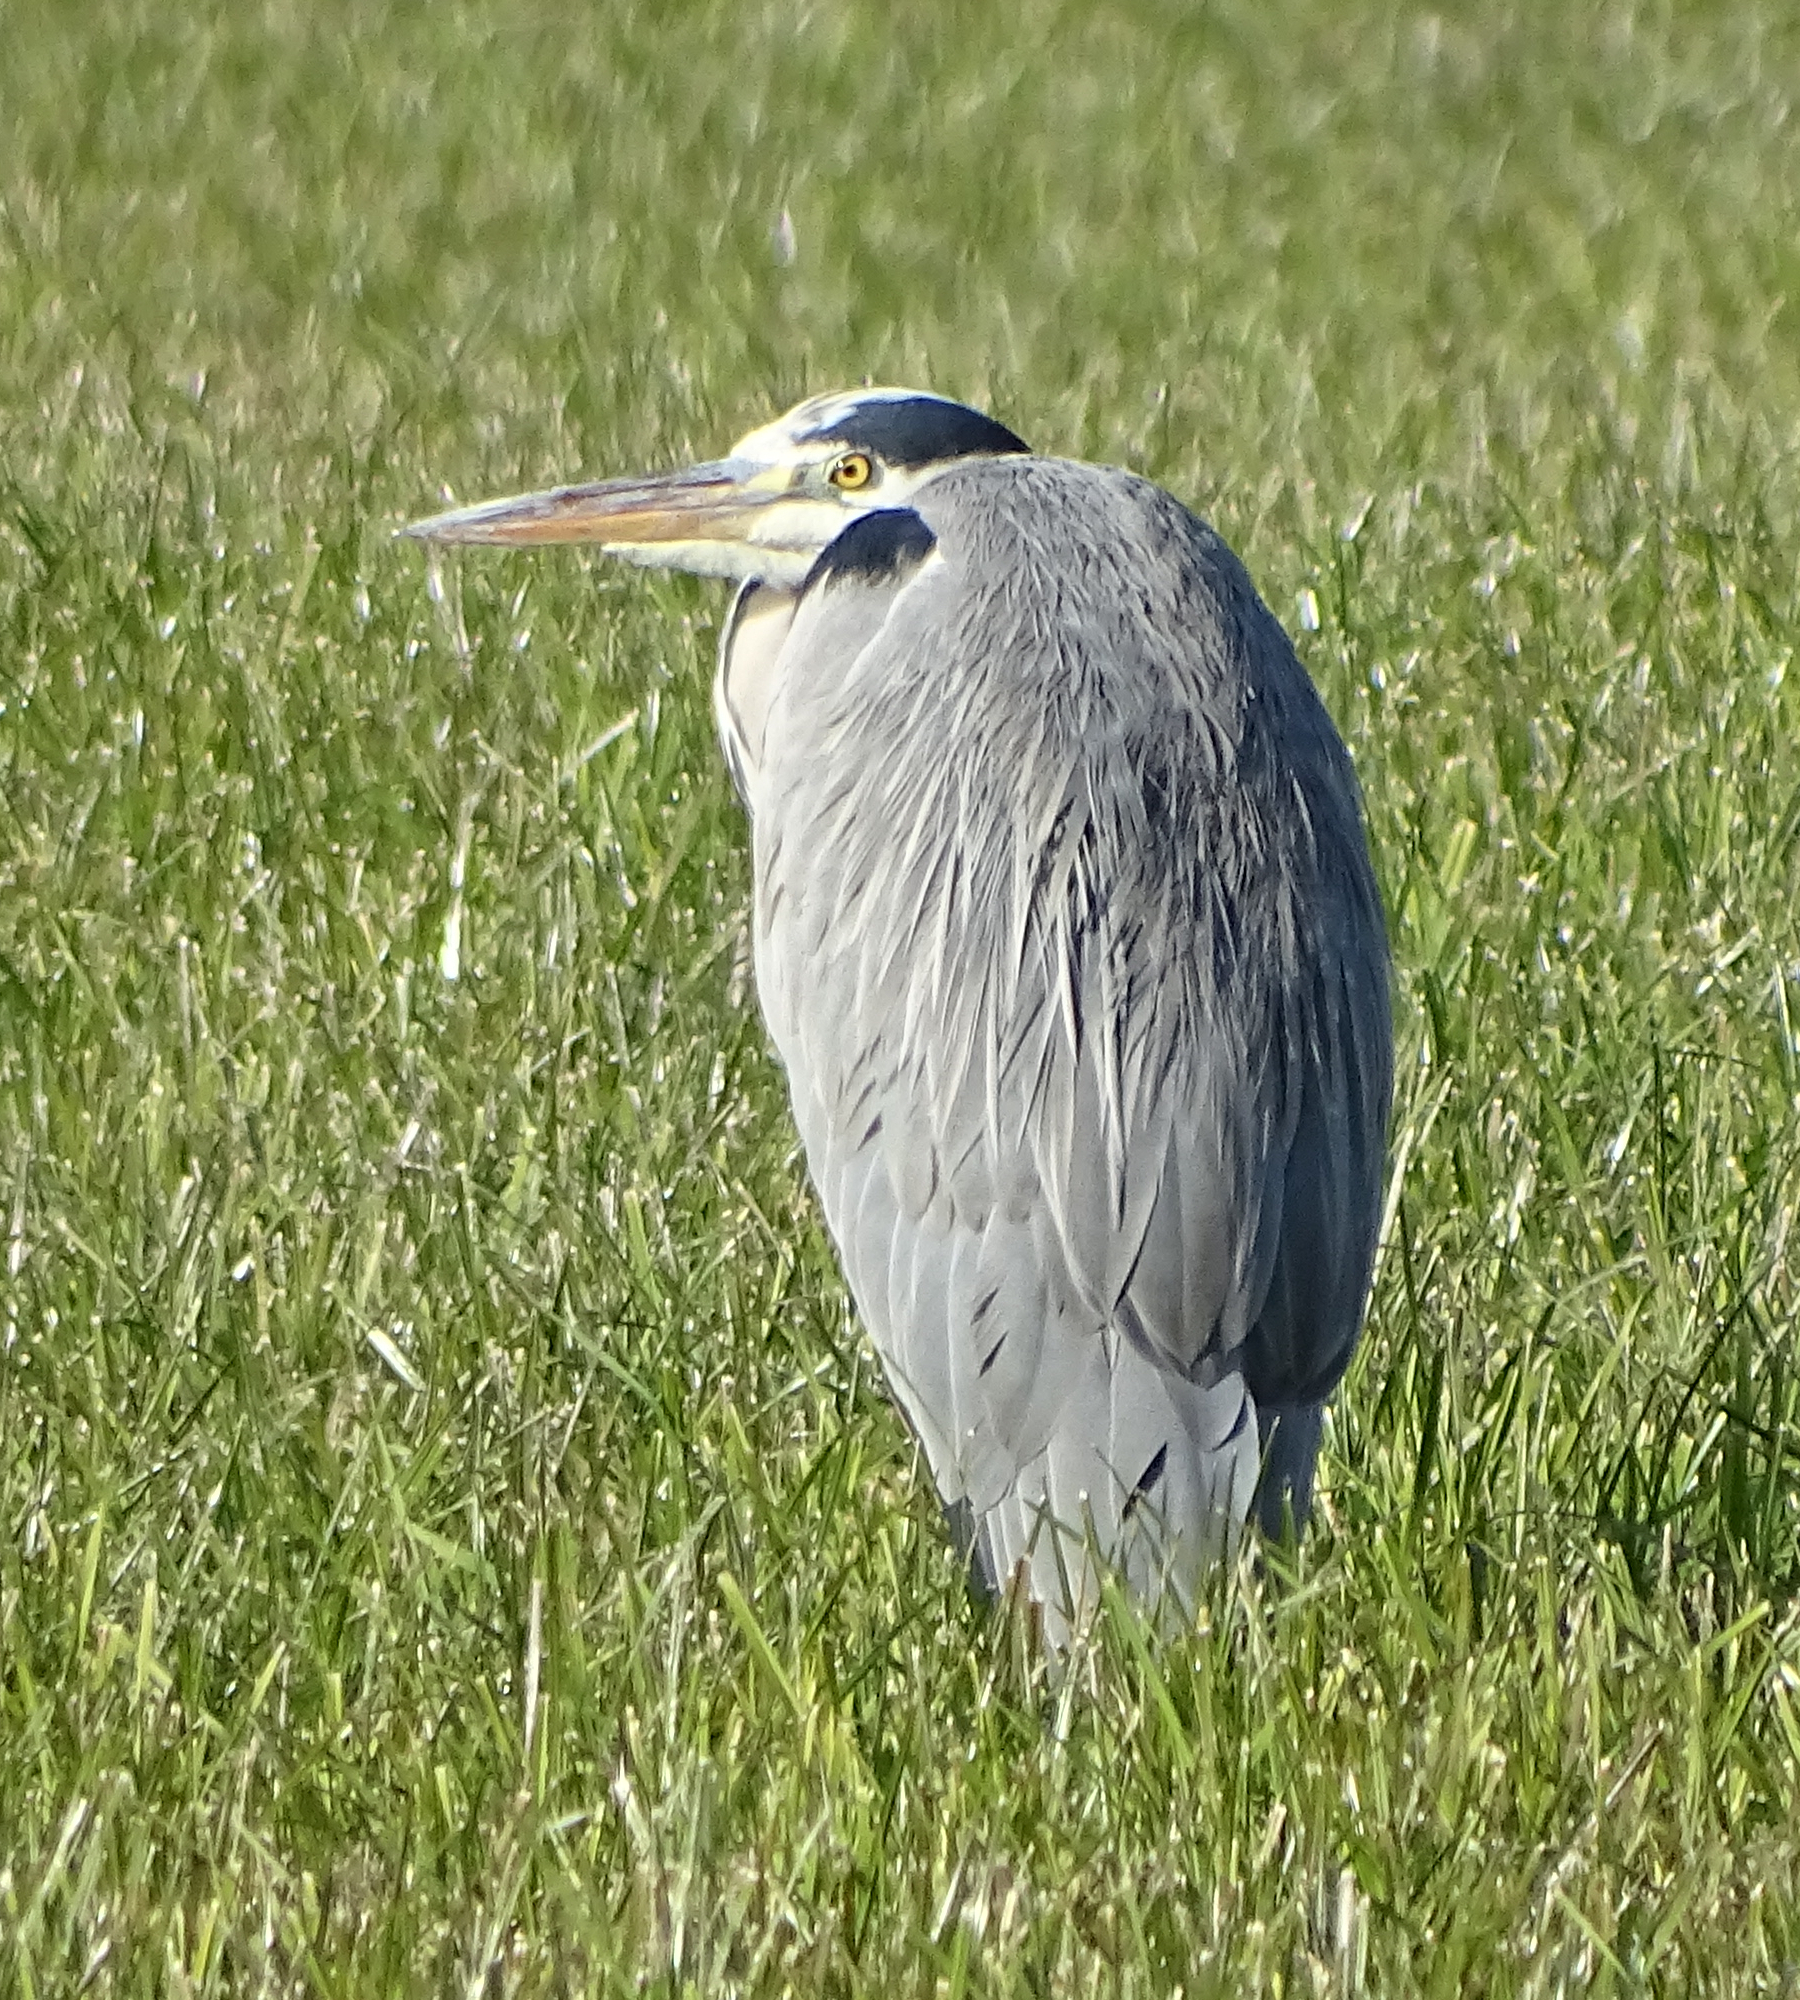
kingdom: Animalia
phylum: Chordata
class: Aves
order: Pelecaniformes
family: Ardeidae
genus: Ardea
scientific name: Ardea cinerea
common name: Grey heron
